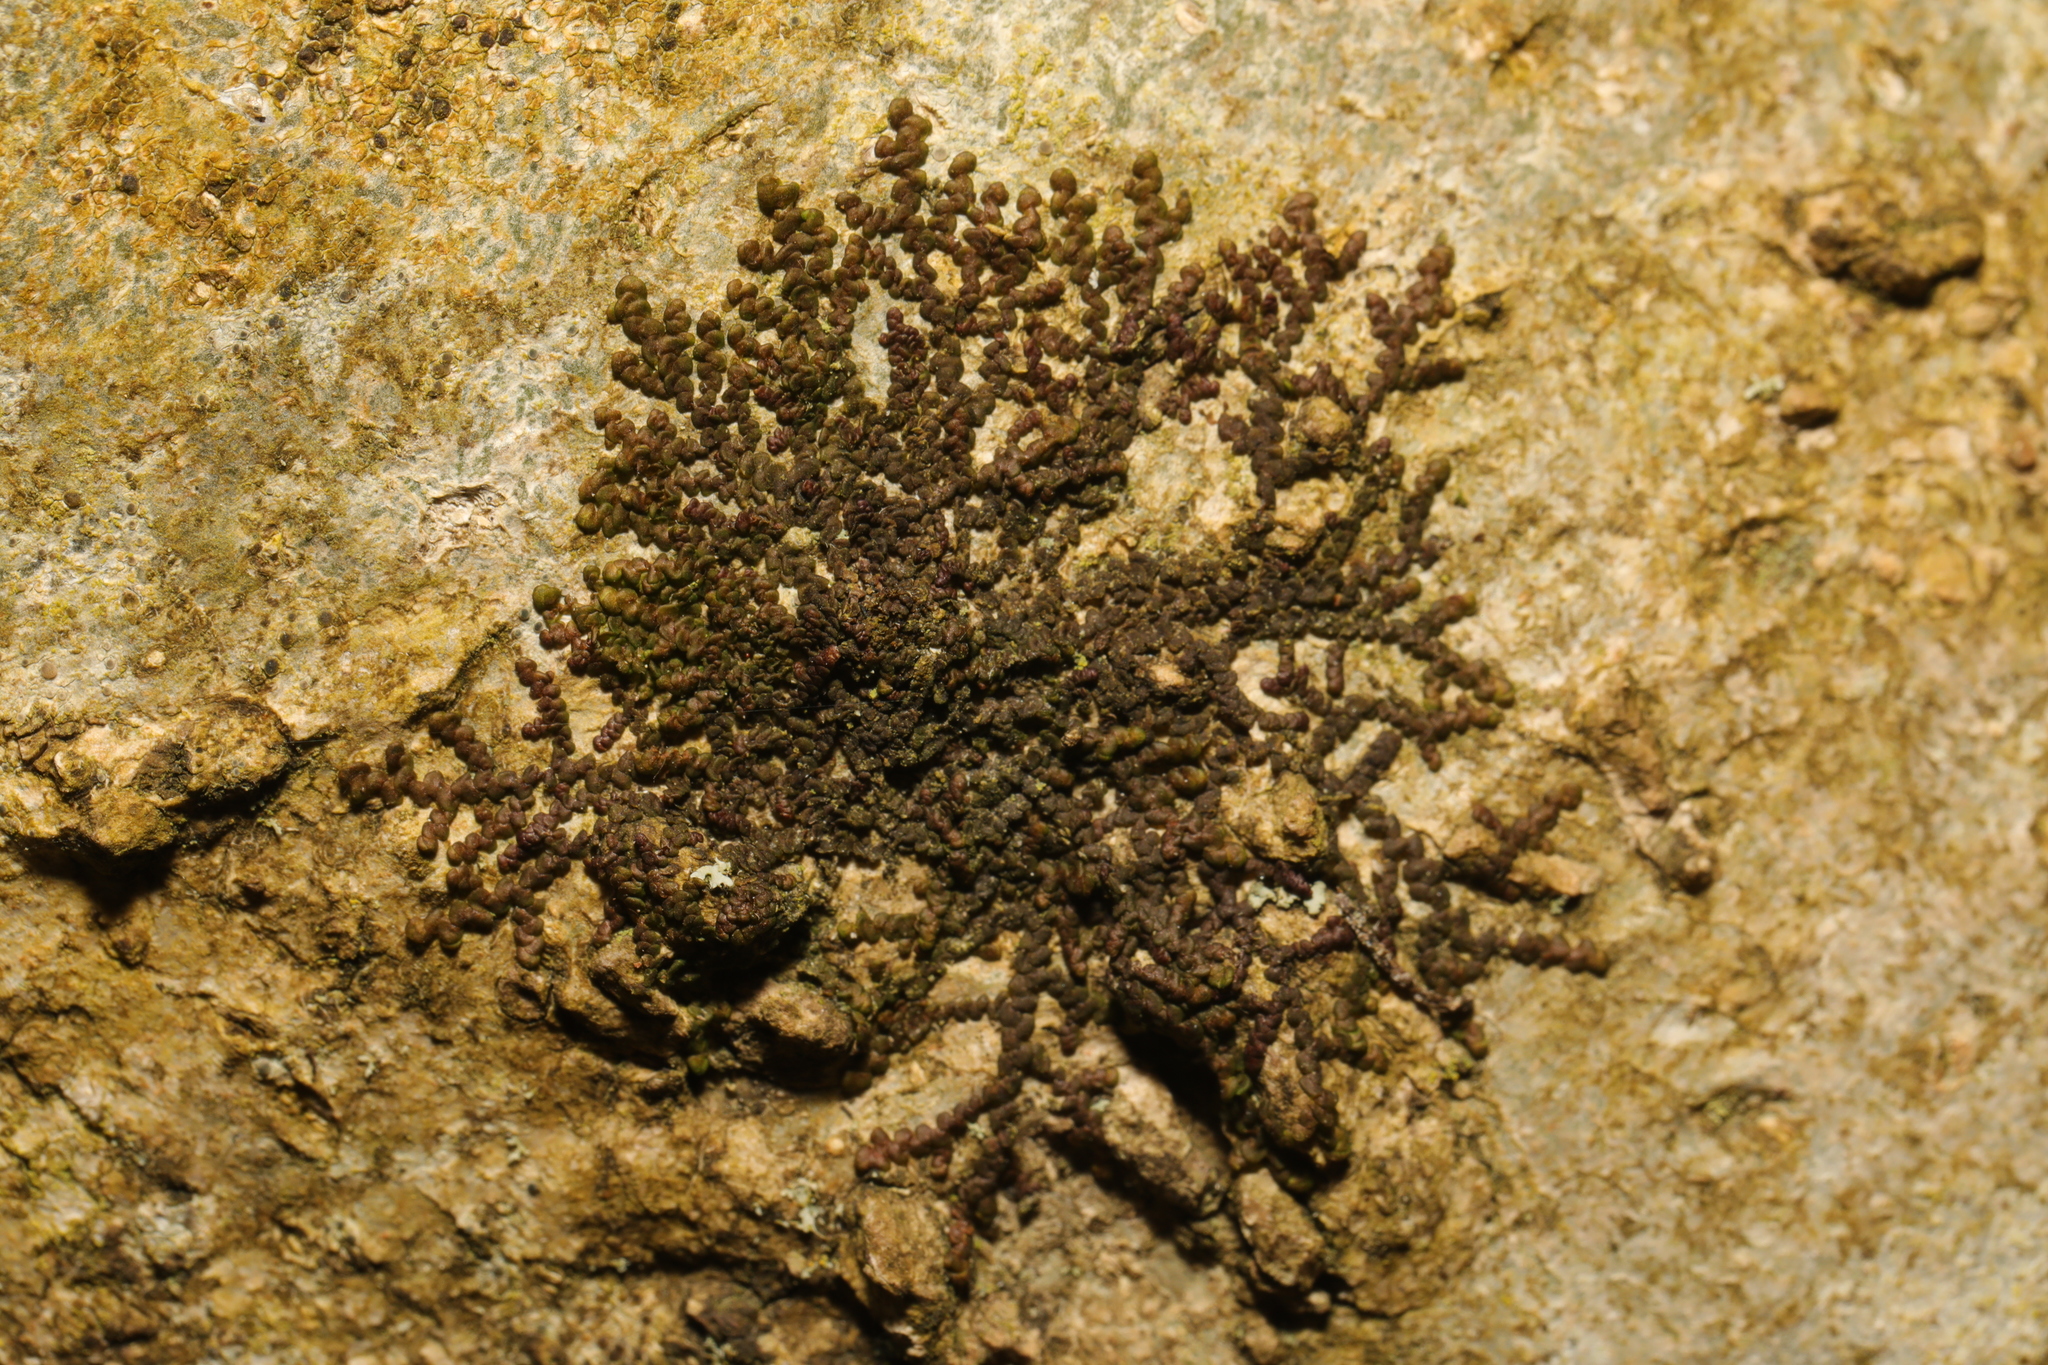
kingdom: Plantae
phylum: Marchantiophyta
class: Jungermanniopsida
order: Porellales
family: Frullaniaceae
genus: Frullania
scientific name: Frullania dilatata
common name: Dilated scalewort
